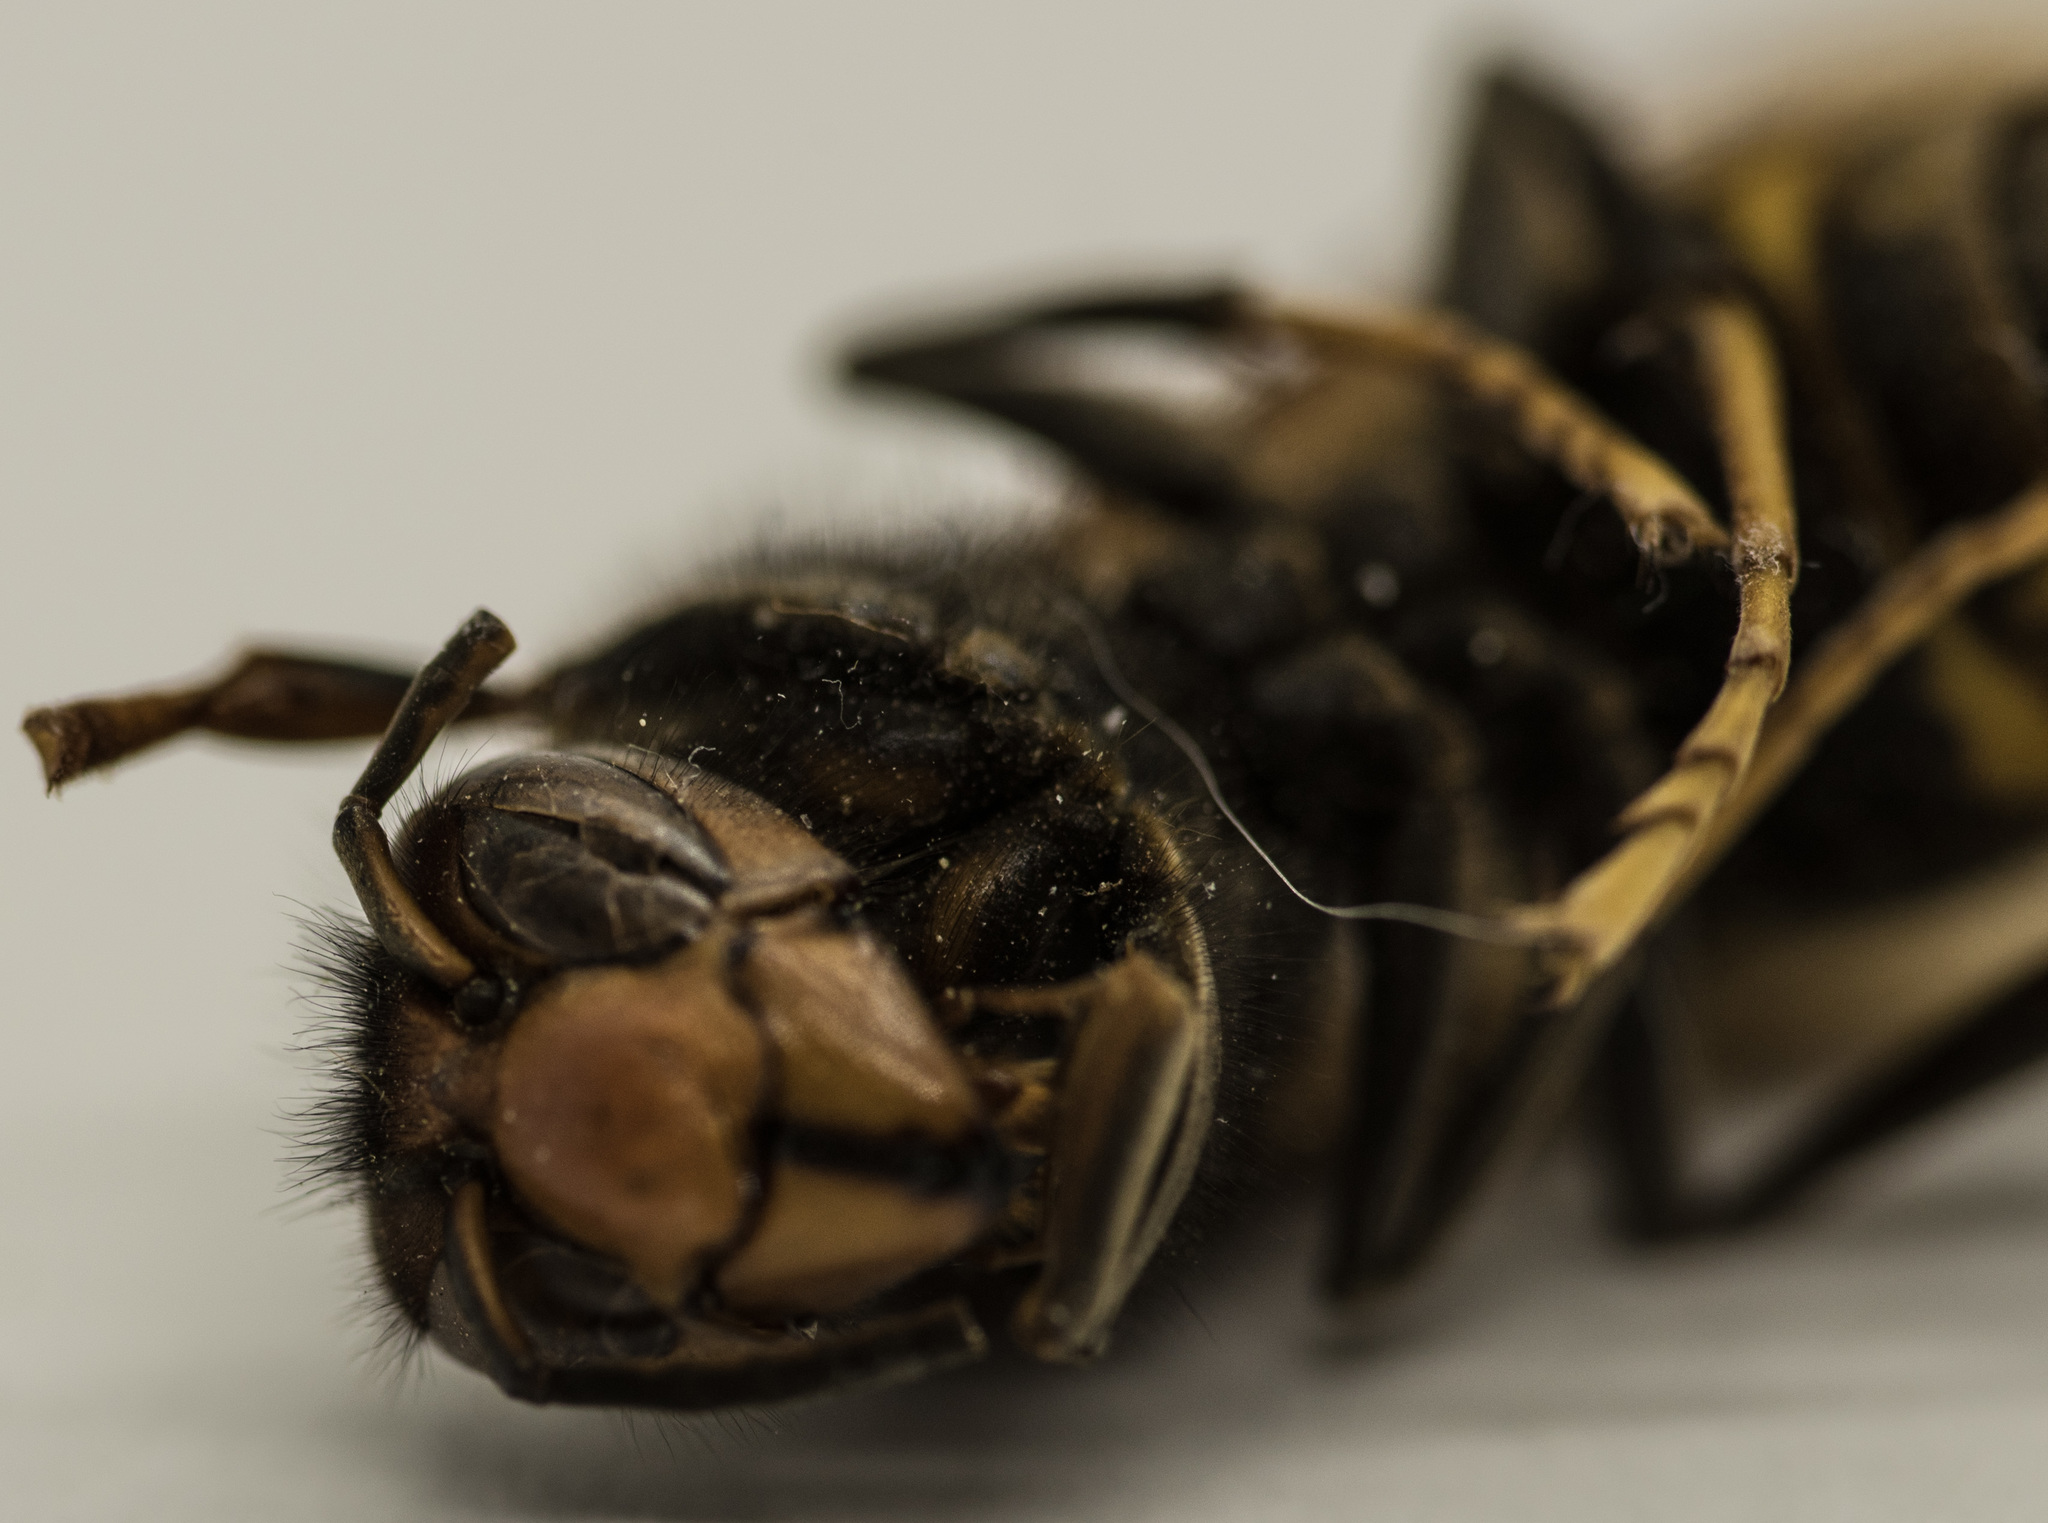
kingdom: Animalia
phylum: Arthropoda
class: Insecta
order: Hymenoptera
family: Vespidae
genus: Vespa
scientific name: Vespa velutina
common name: Asian hornet
